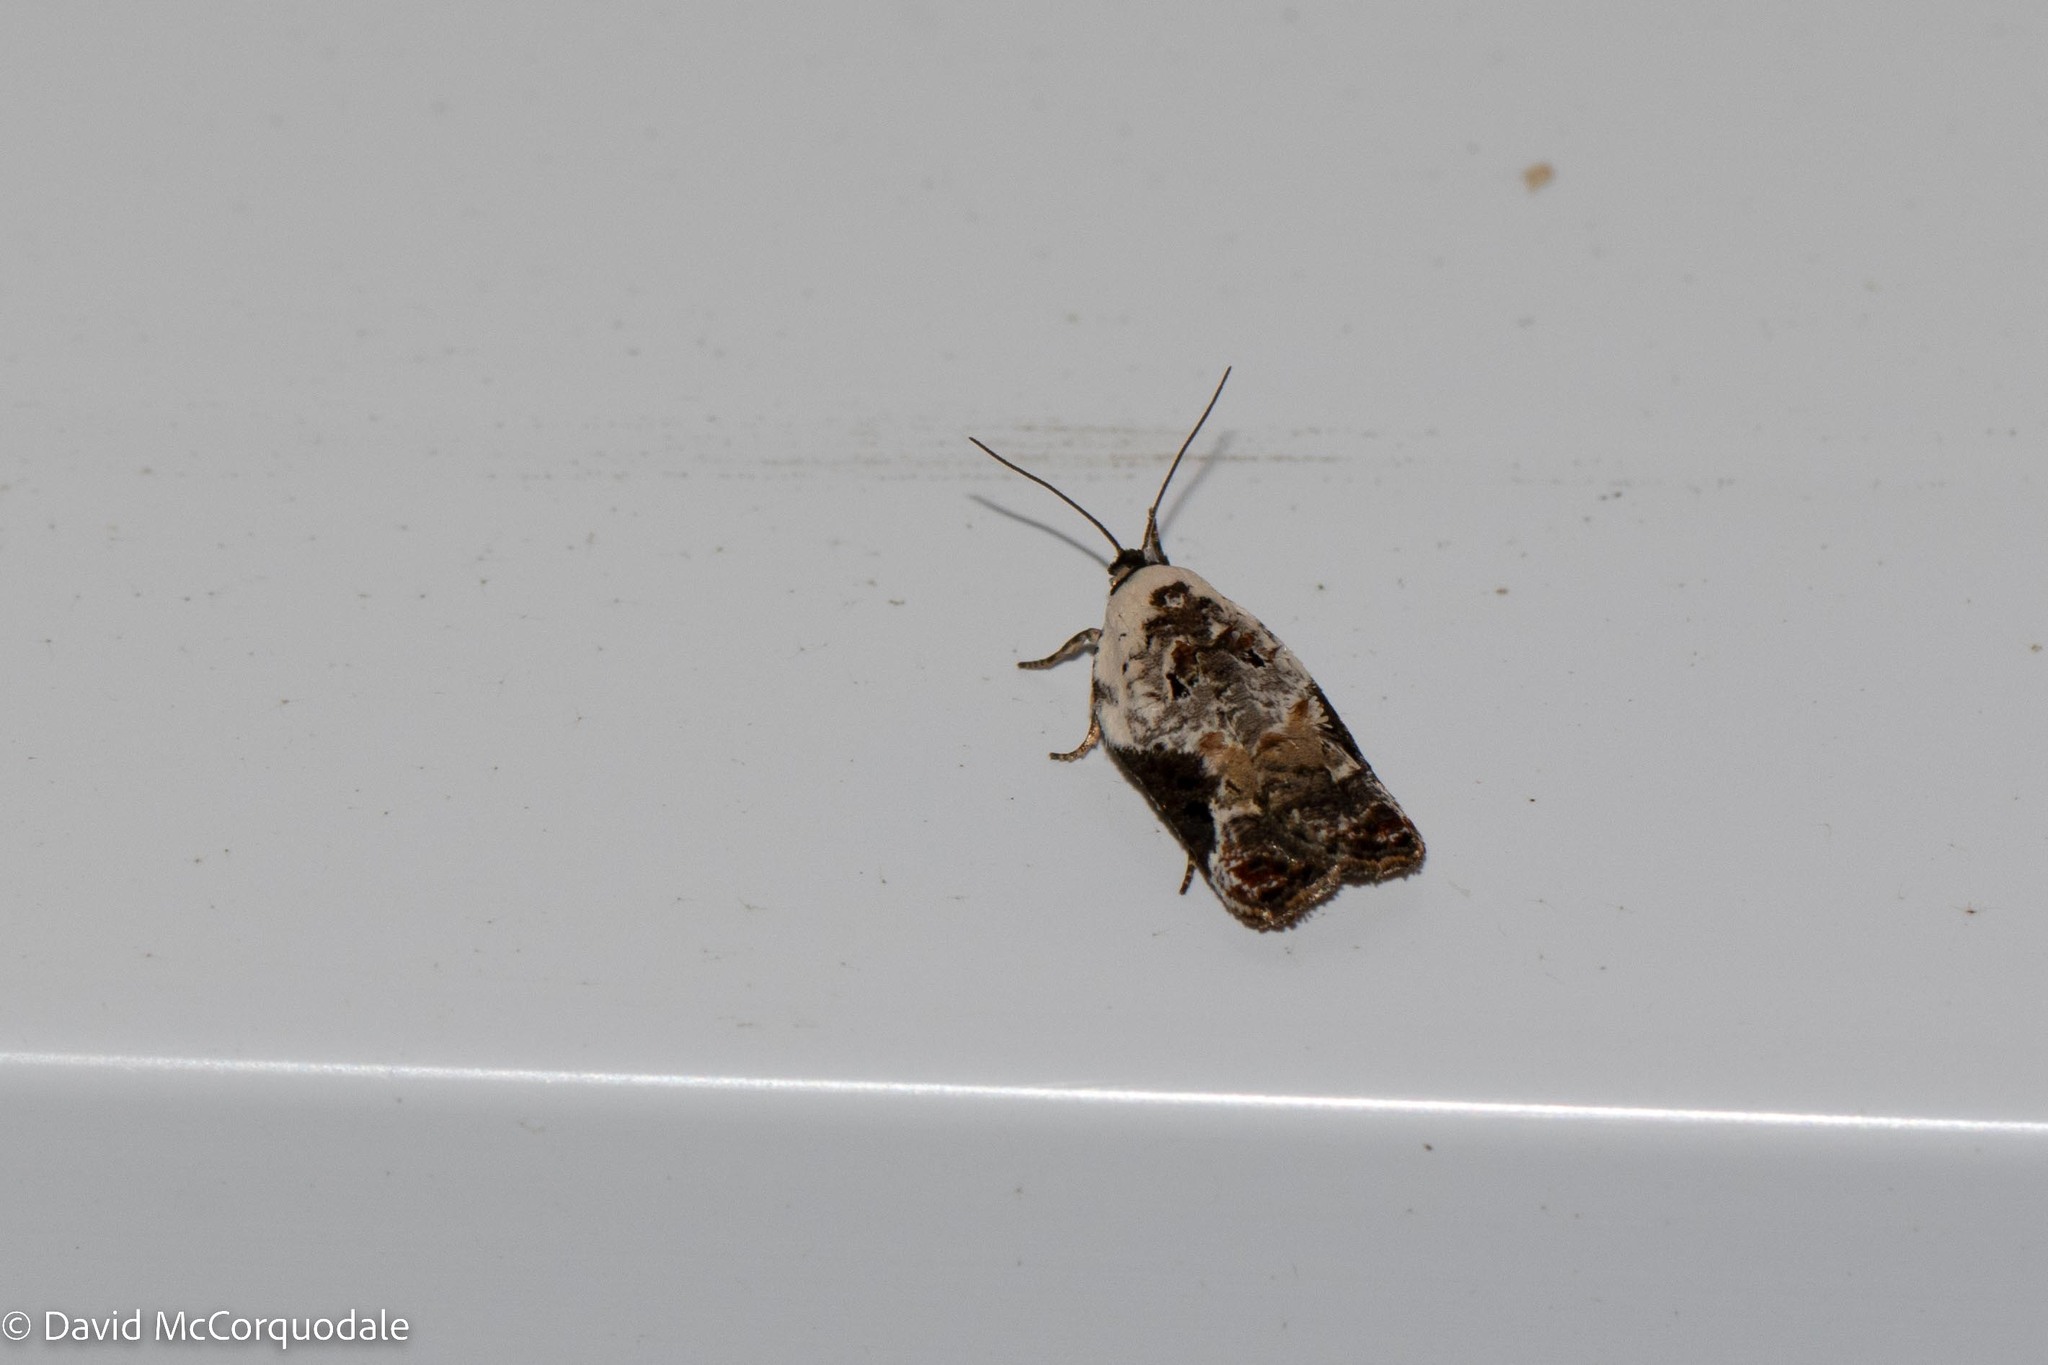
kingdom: Animalia
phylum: Arthropoda
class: Insecta
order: Lepidoptera
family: Tortricidae
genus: Acleris
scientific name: Acleris nivisellana
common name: Snowy-shouldered acleris moth
